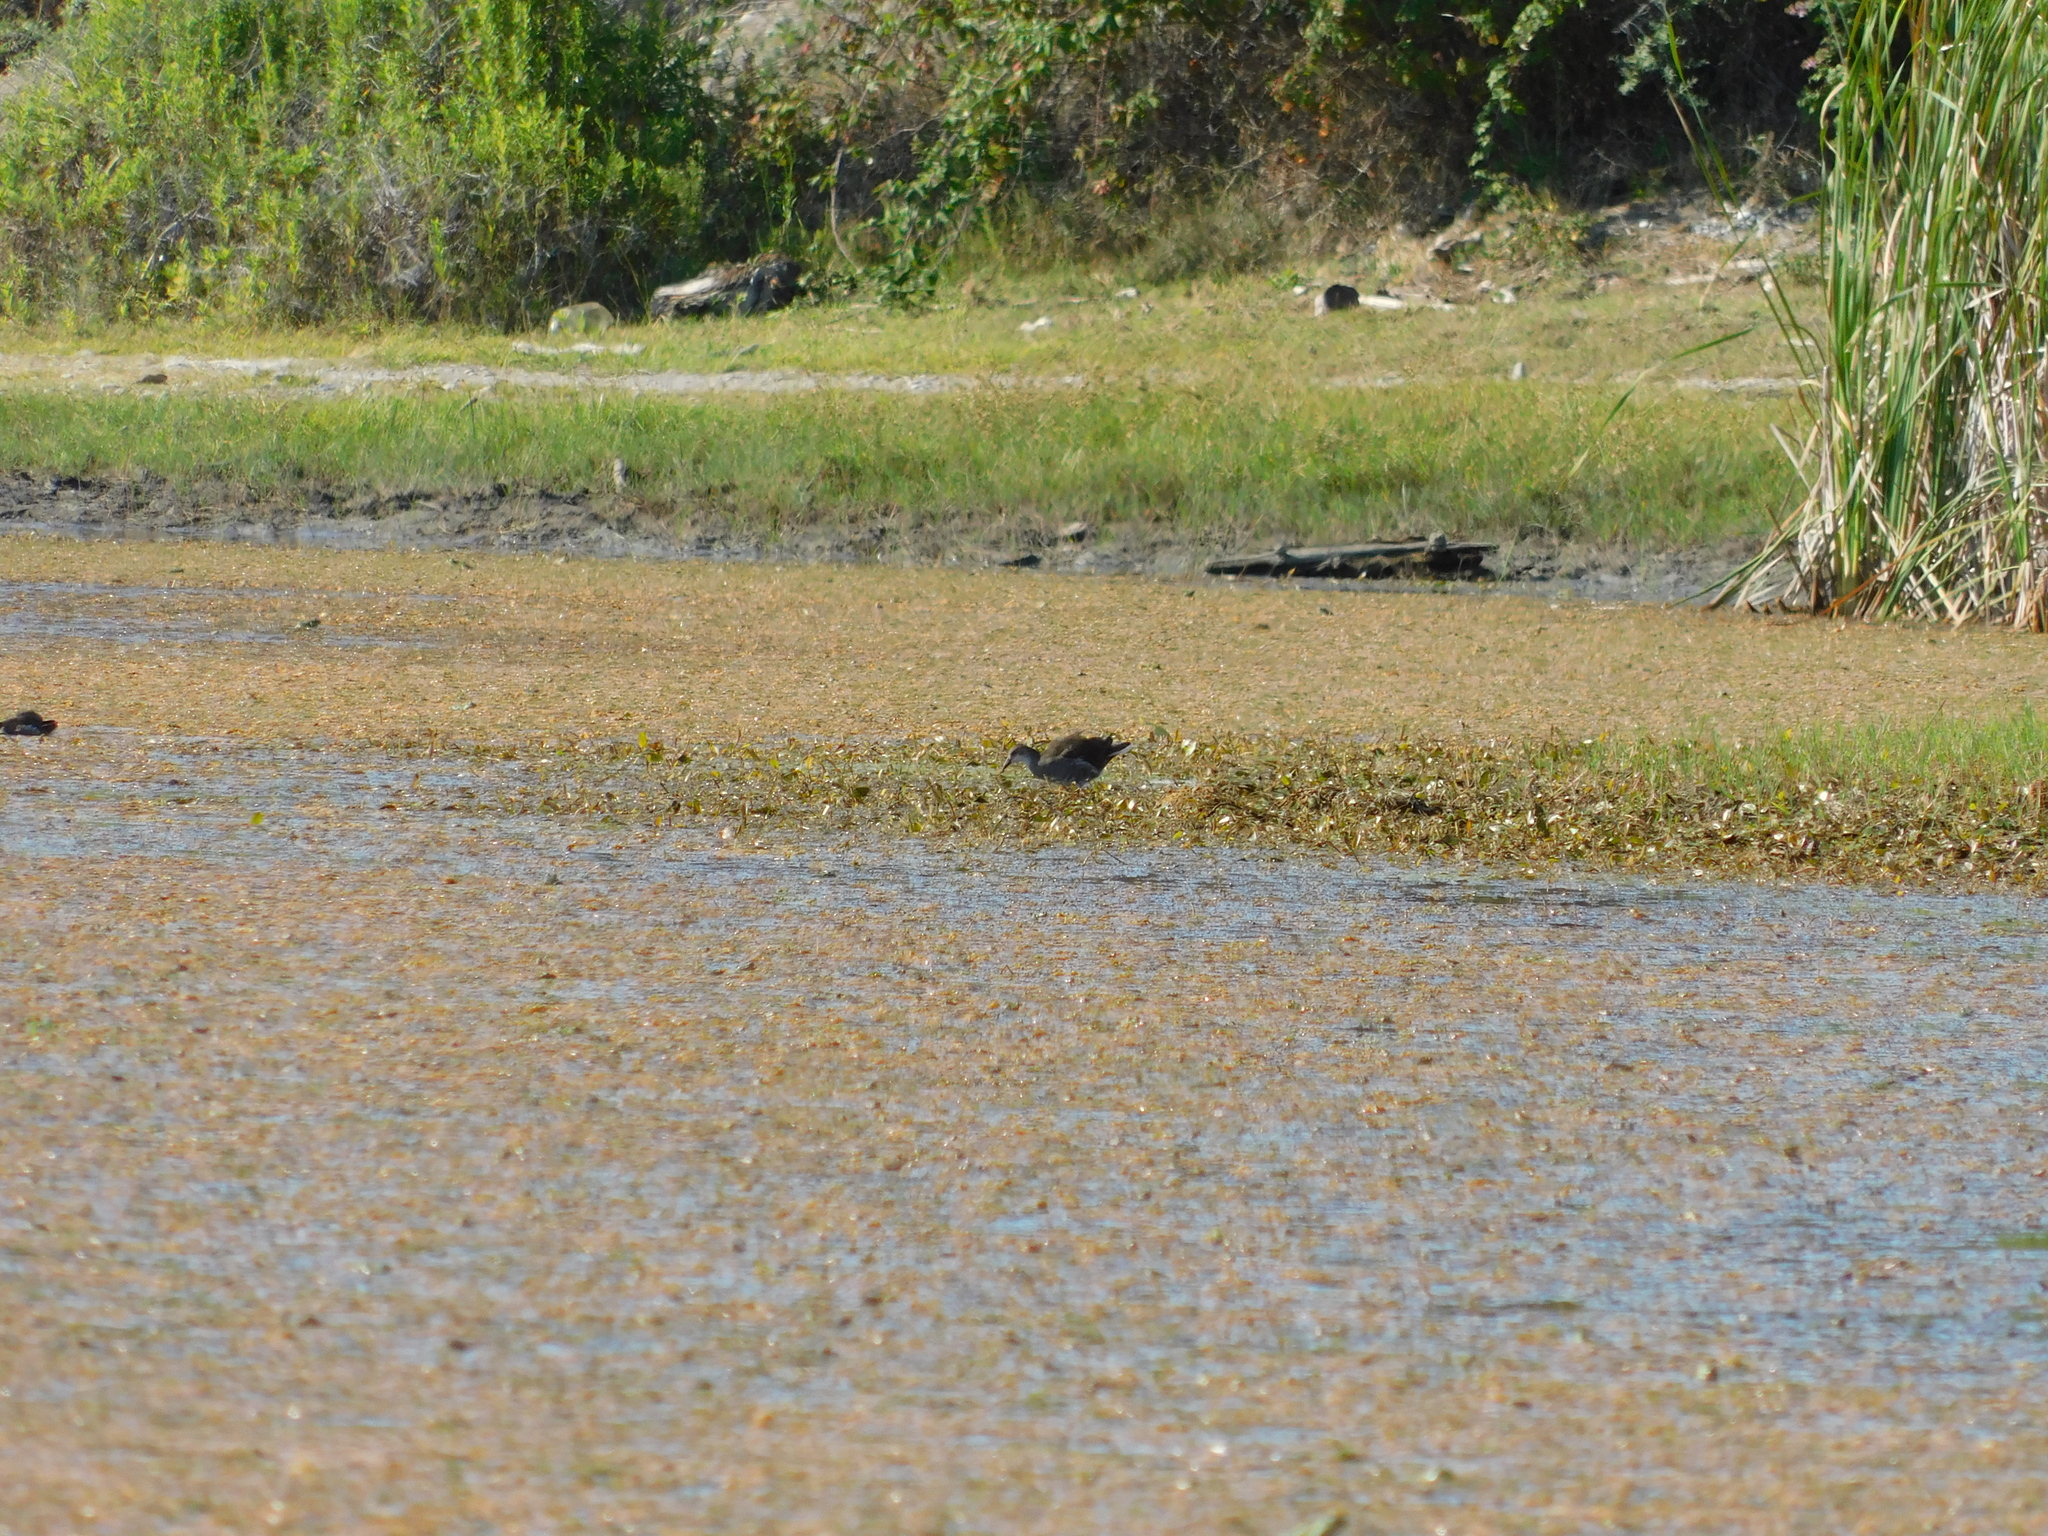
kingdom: Animalia
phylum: Chordata
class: Aves
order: Gruiformes
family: Rallidae
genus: Gallinula
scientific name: Gallinula chloropus
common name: Common moorhen
